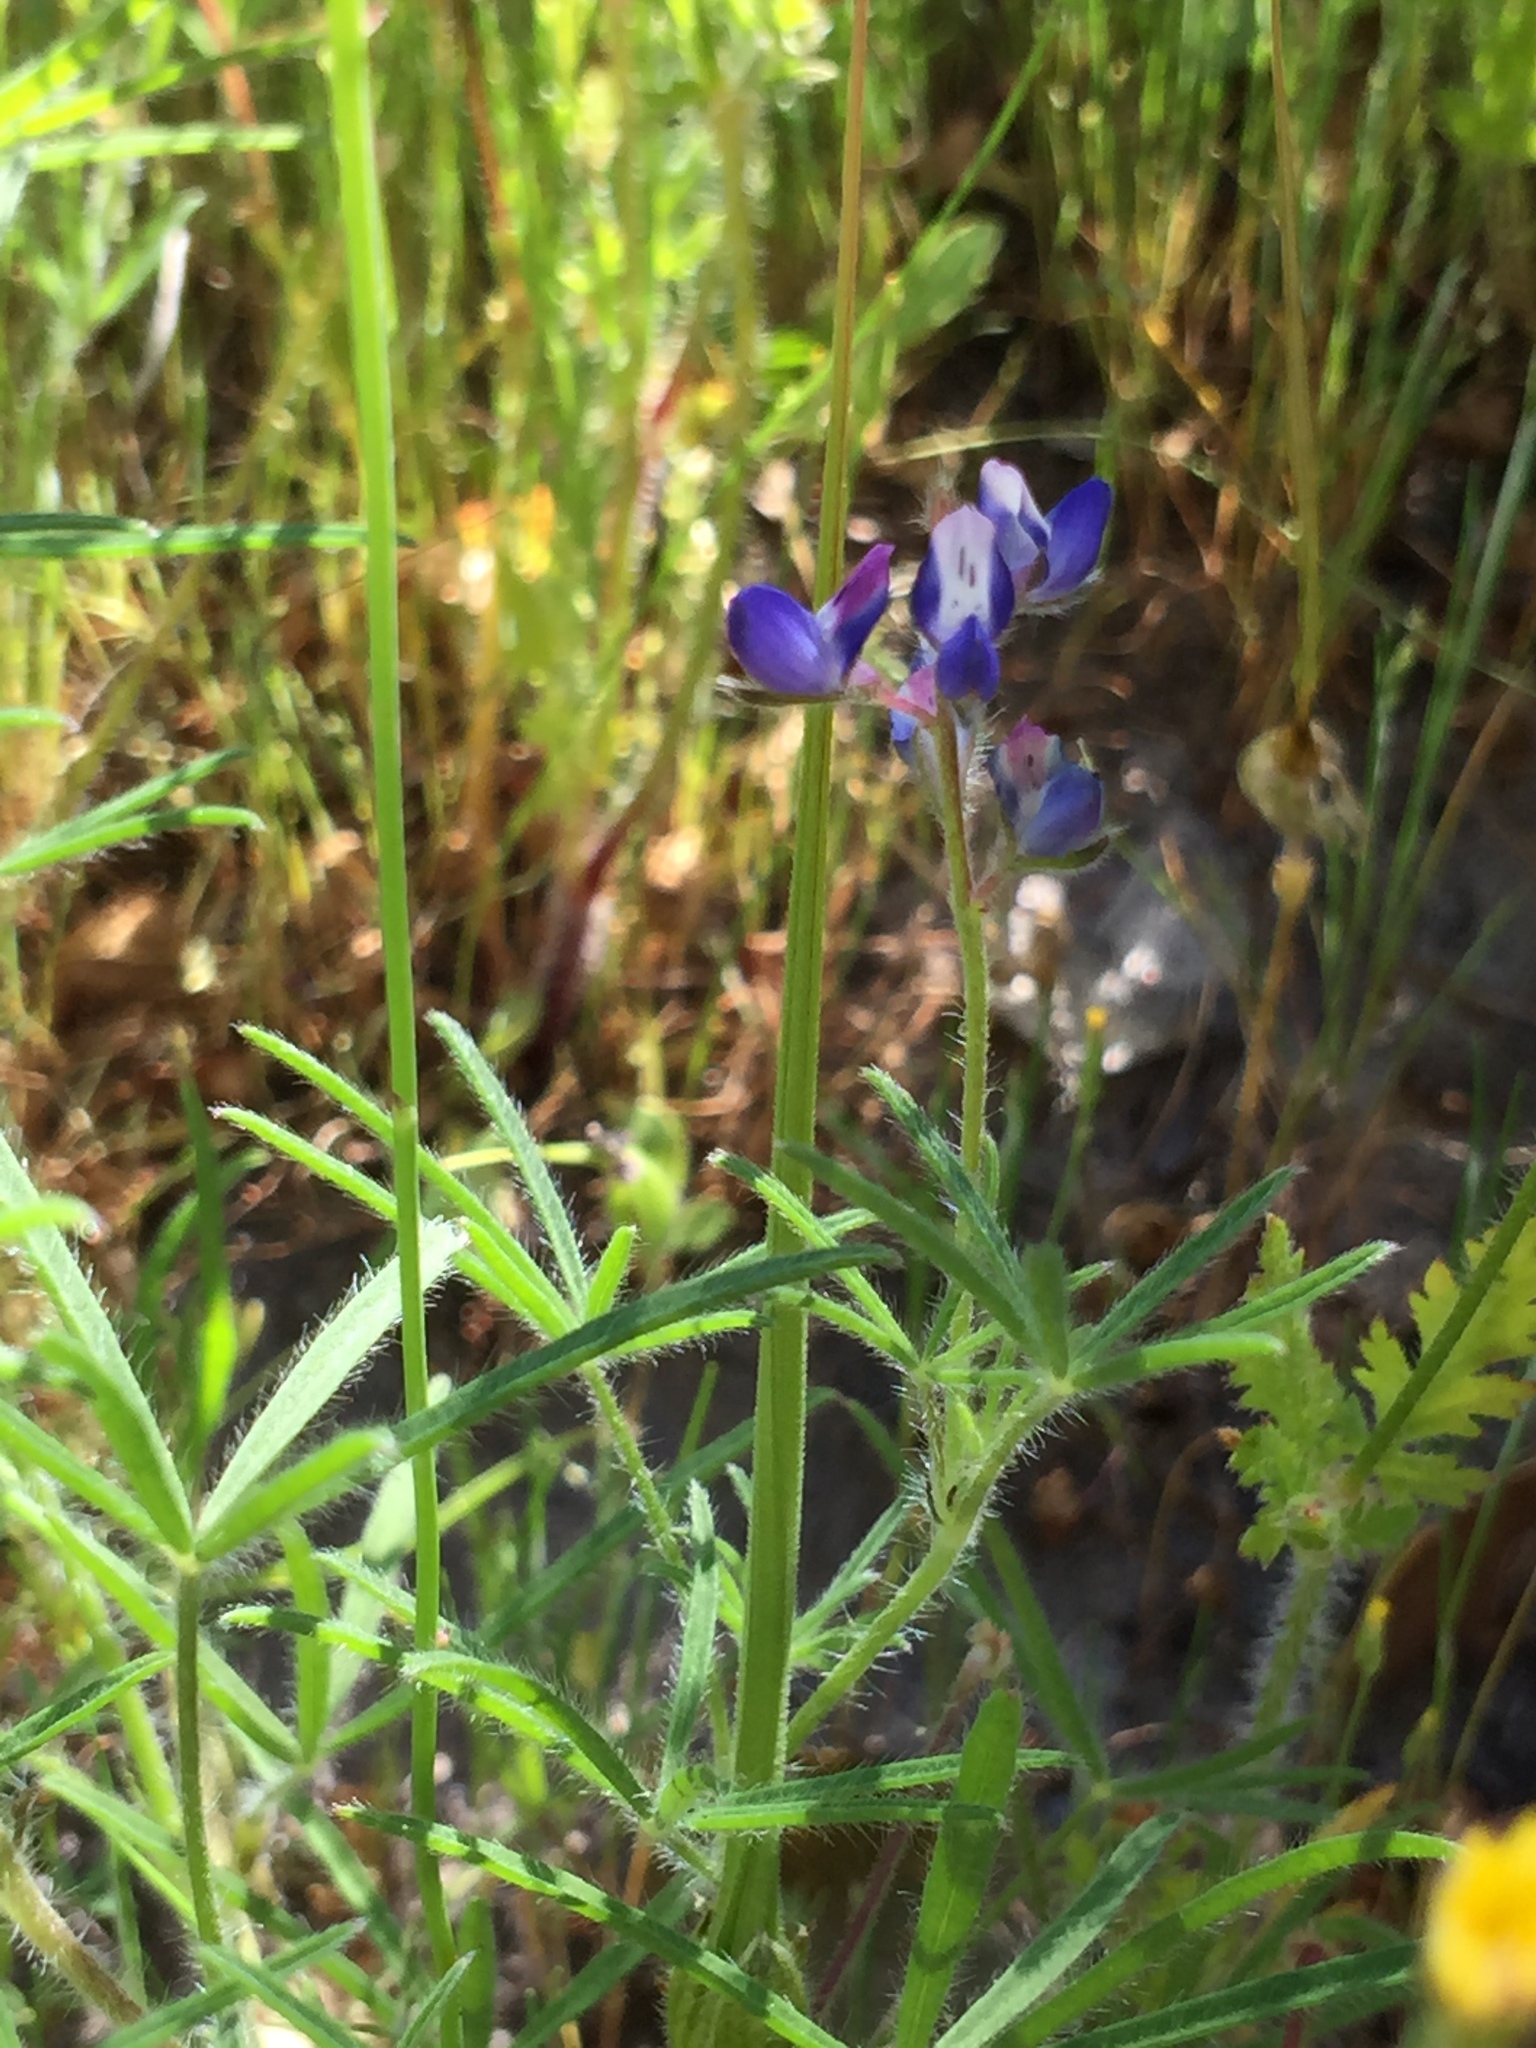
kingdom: Plantae
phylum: Tracheophyta
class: Magnoliopsida
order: Fabales
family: Fabaceae
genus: Lupinus
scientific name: Lupinus bicolor
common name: Miniature lupine
